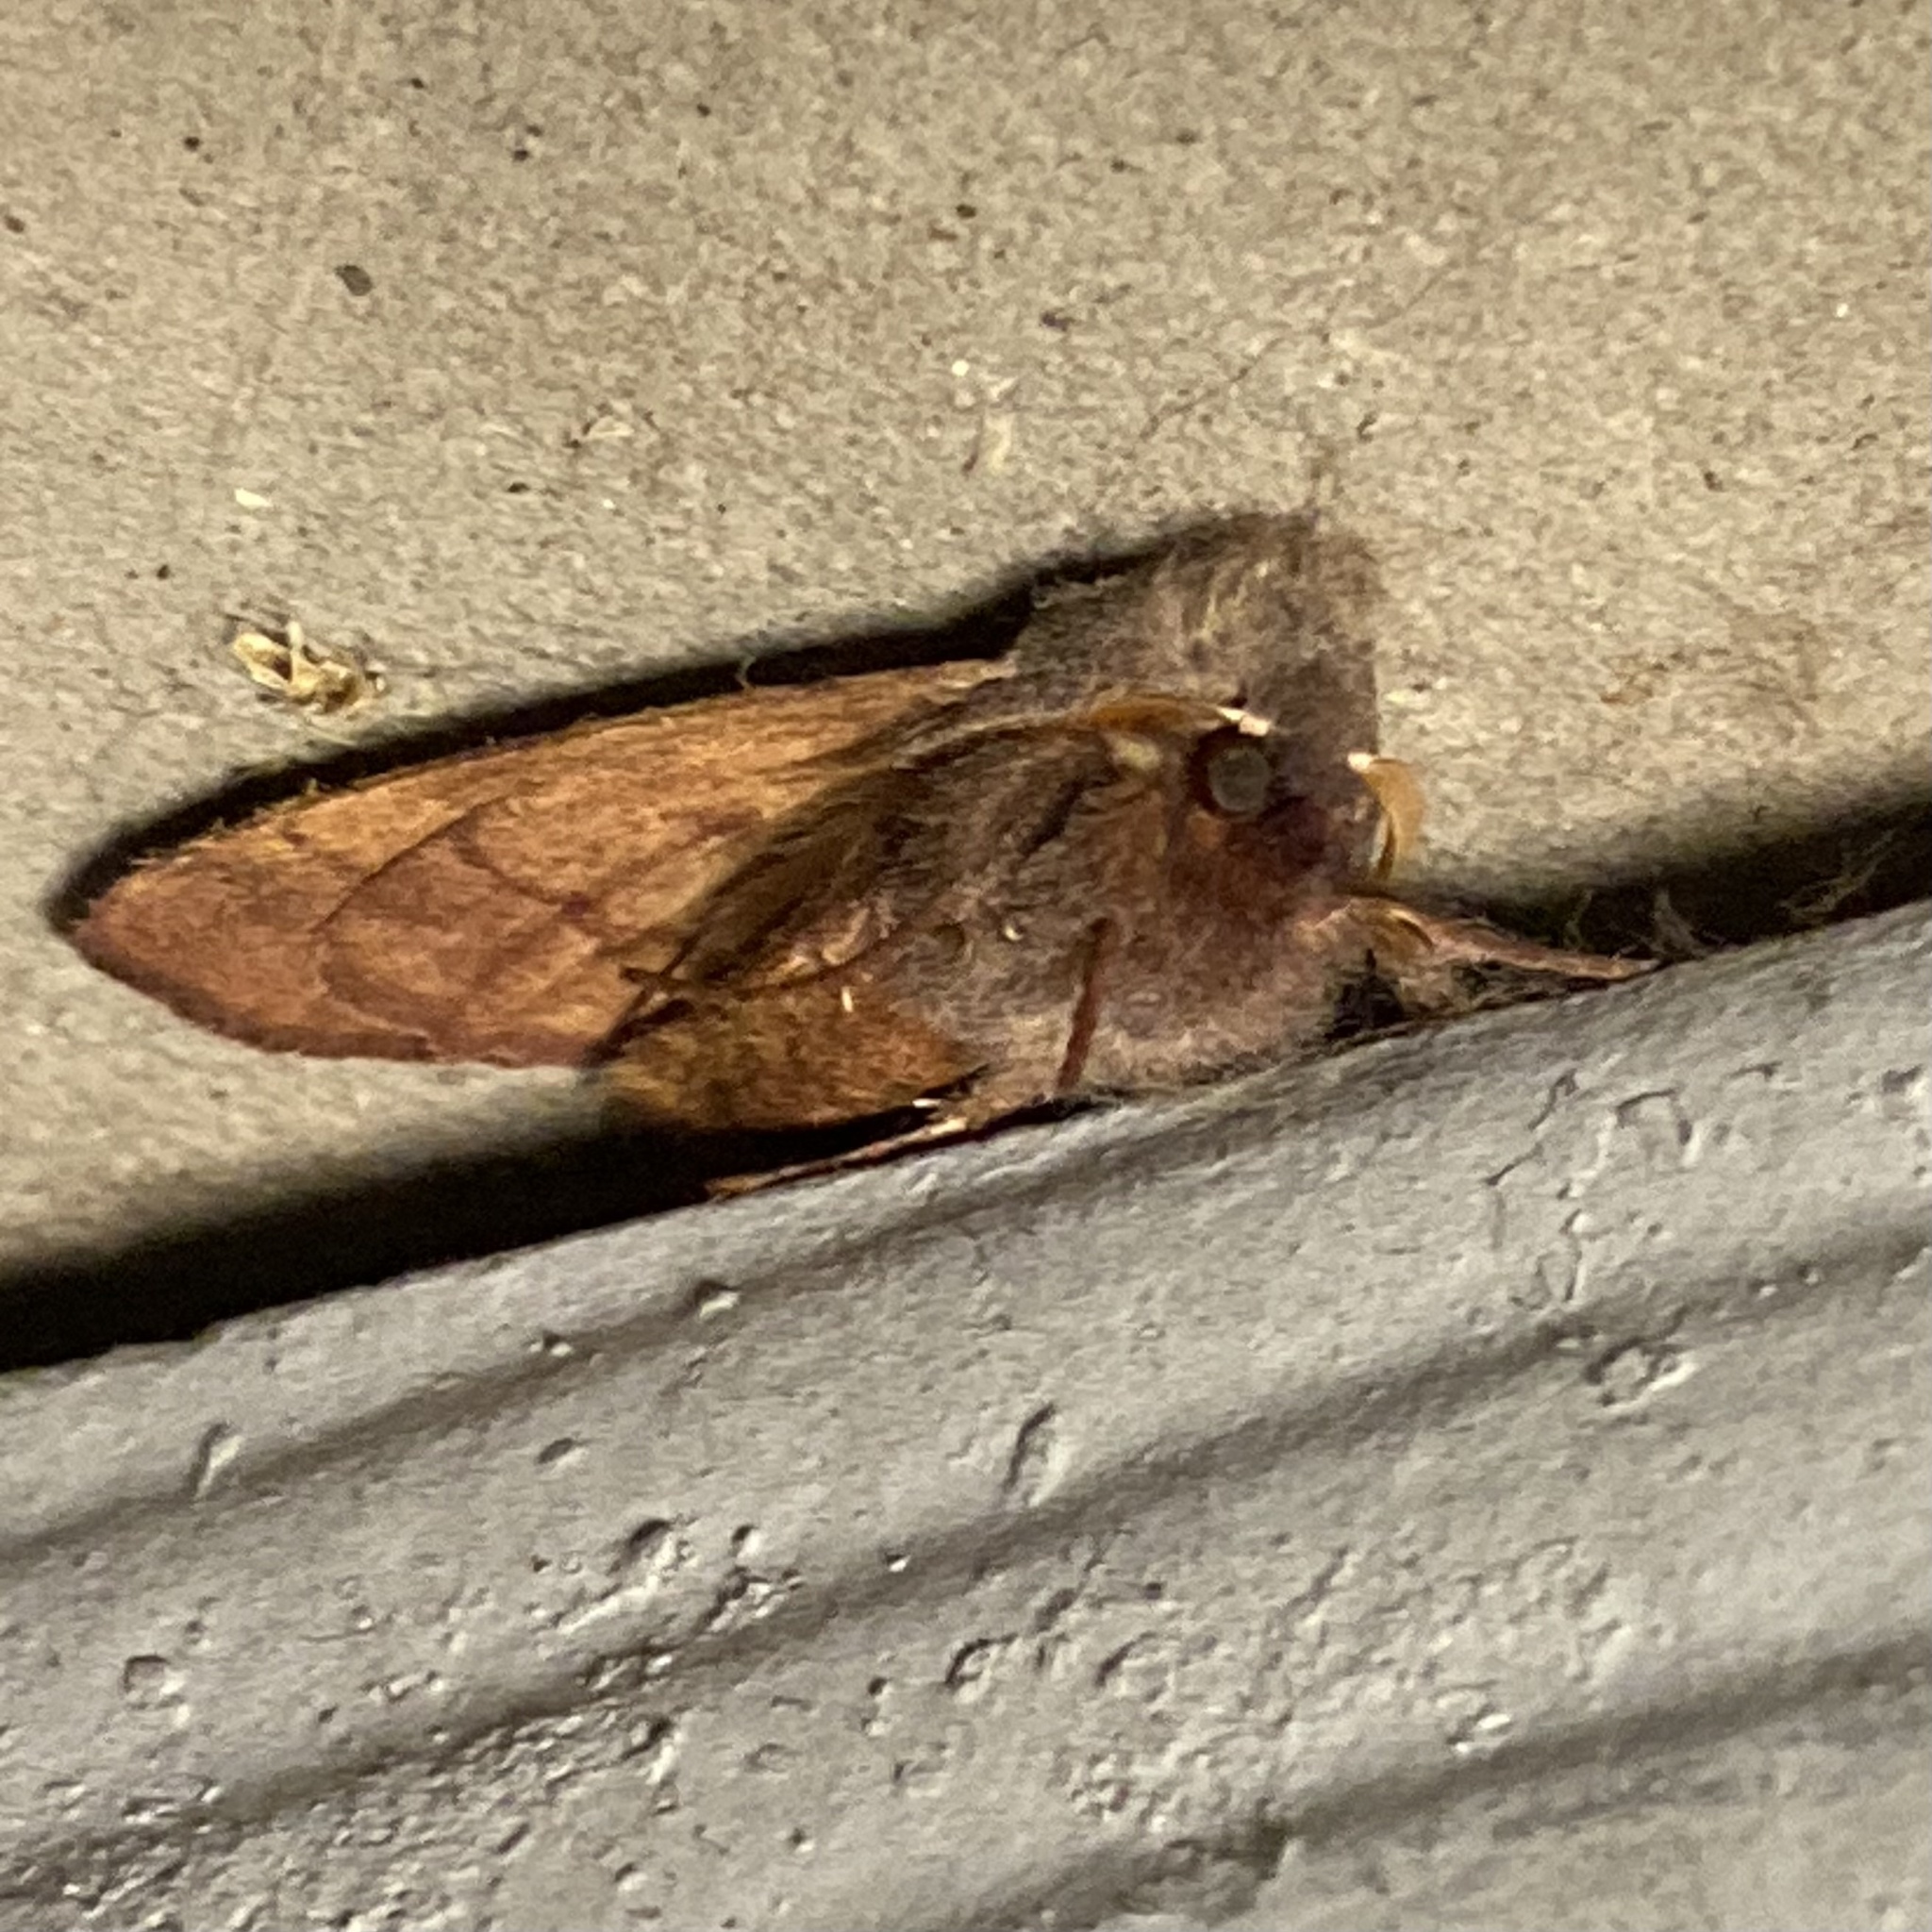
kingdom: Animalia
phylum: Arthropoda
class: Insecta
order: Lepidoptera
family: Noctuidae
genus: Choephora
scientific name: Choephora fungorum
